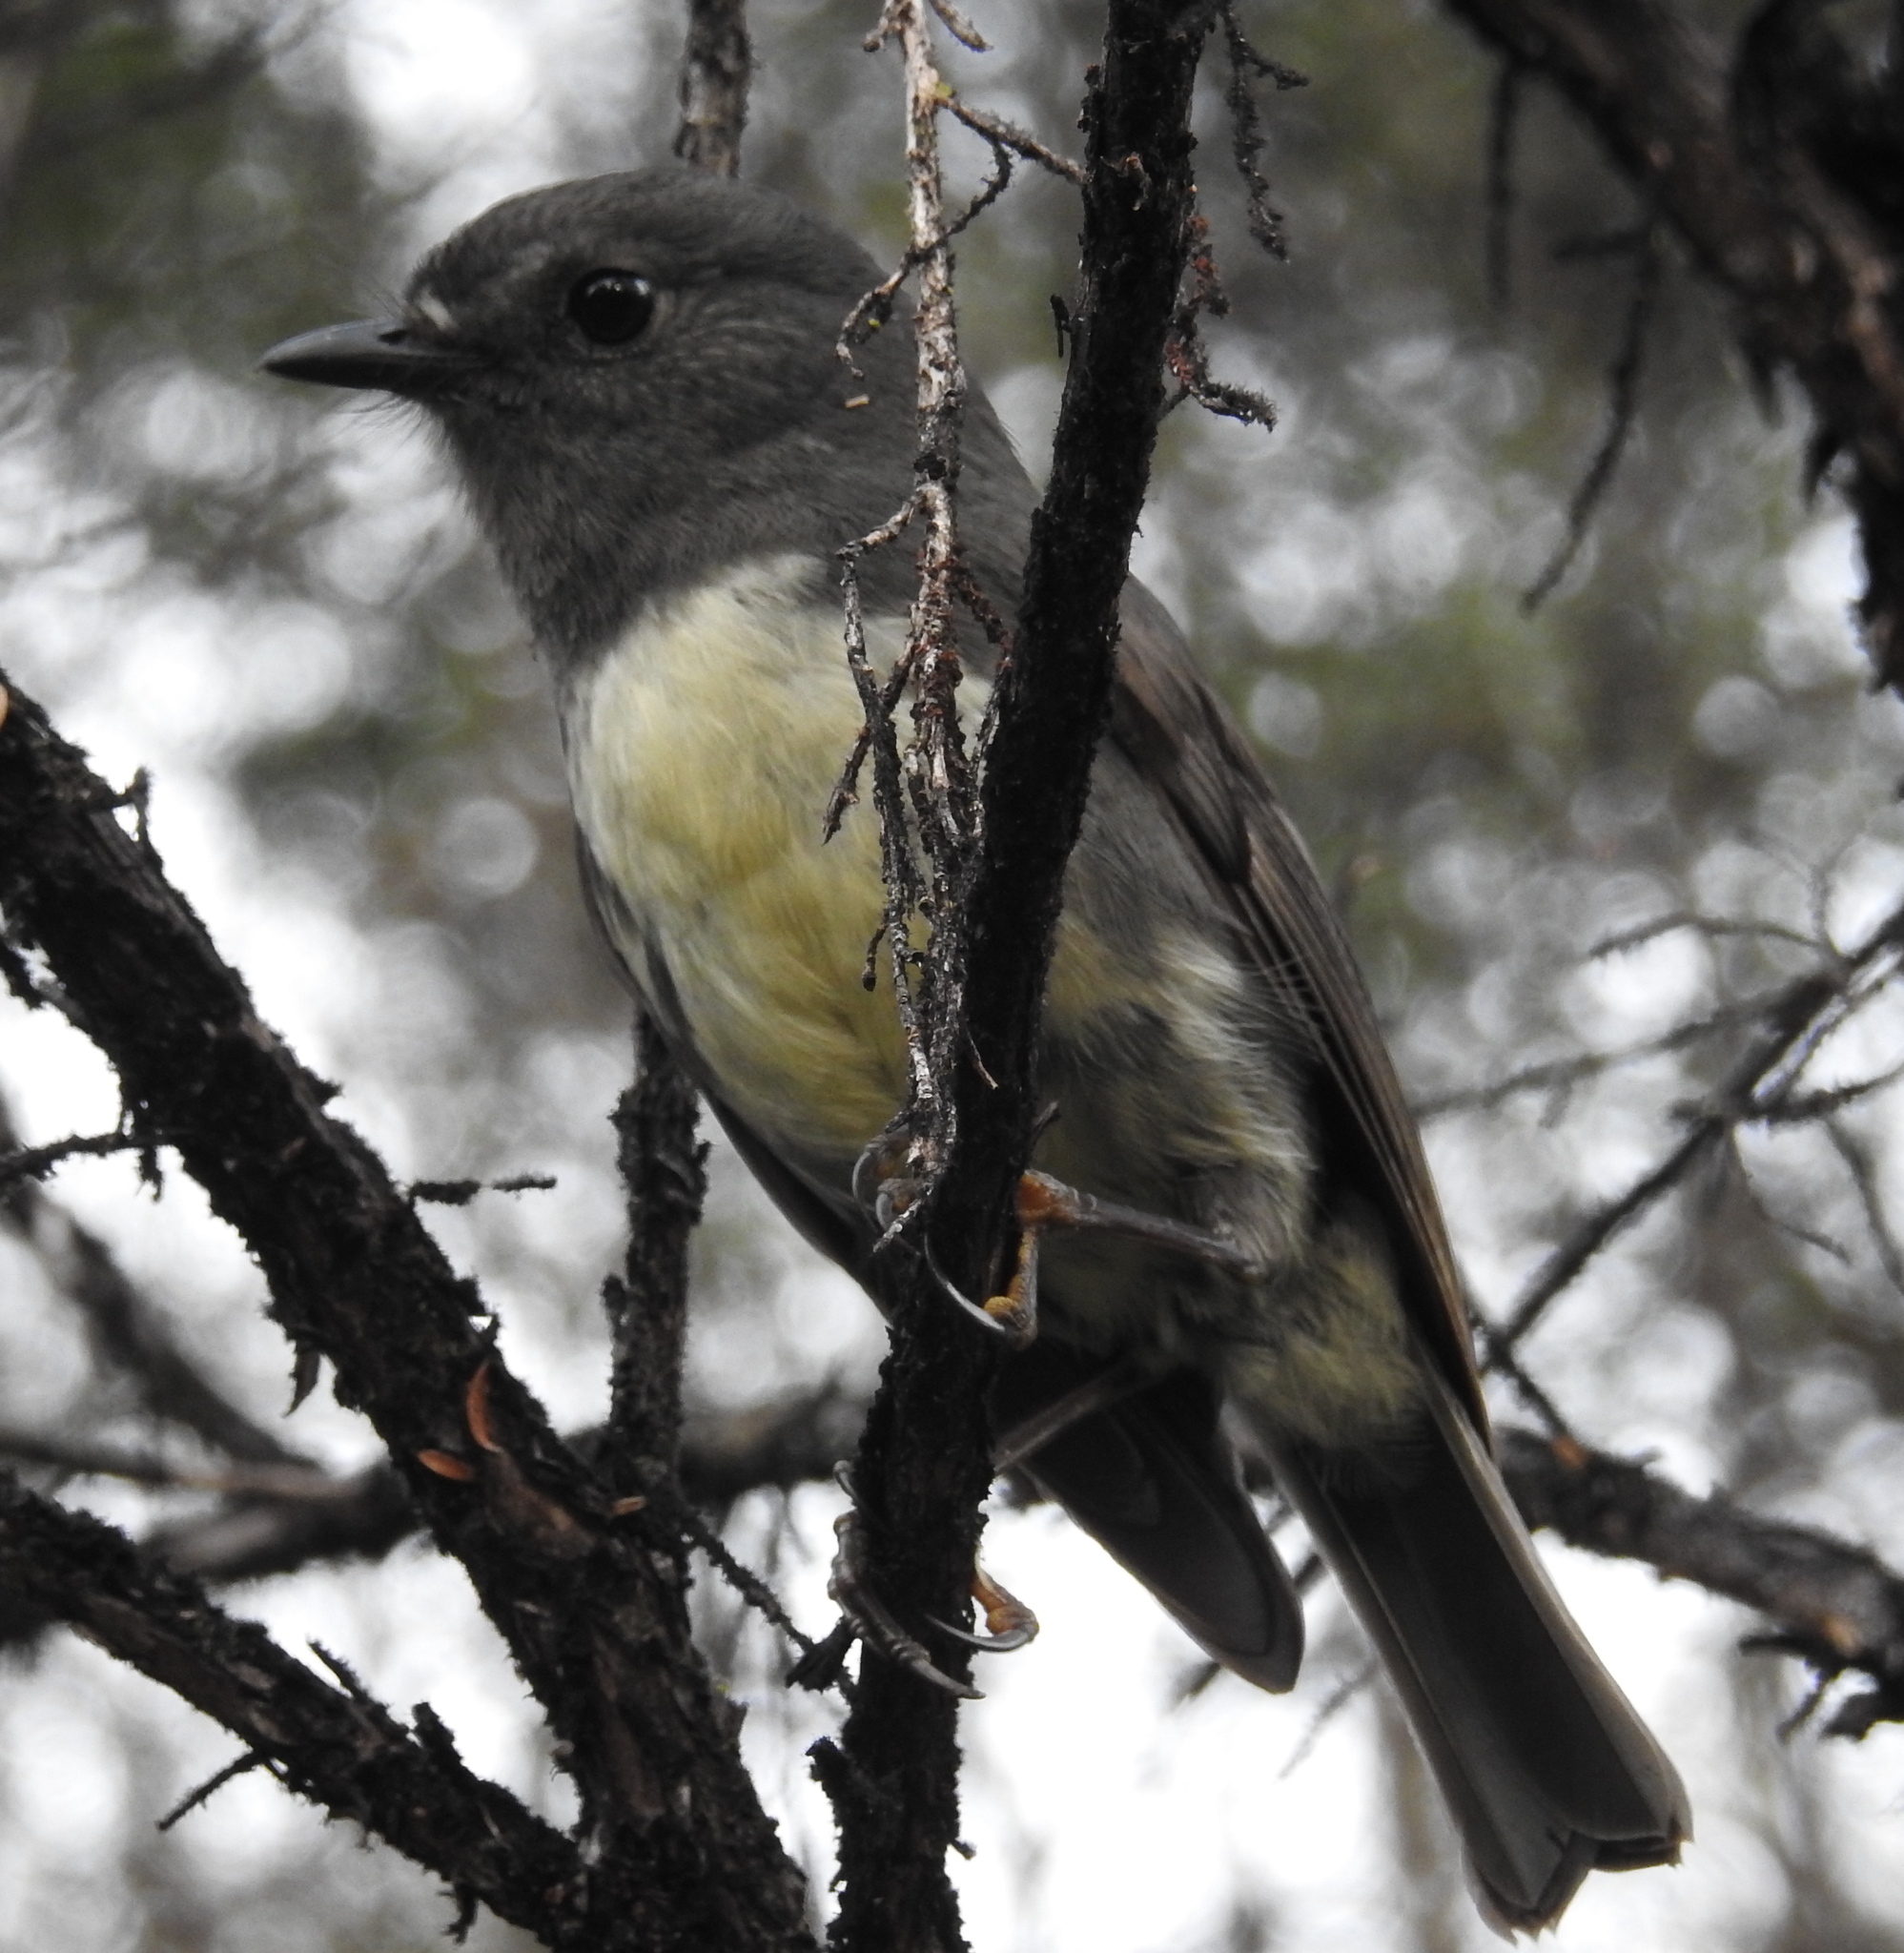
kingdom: Animalia
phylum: Chordata
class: Aves
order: Passeriformes
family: Petroicidae
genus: Petroica
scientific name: Petroica australis
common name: New zealand robin
